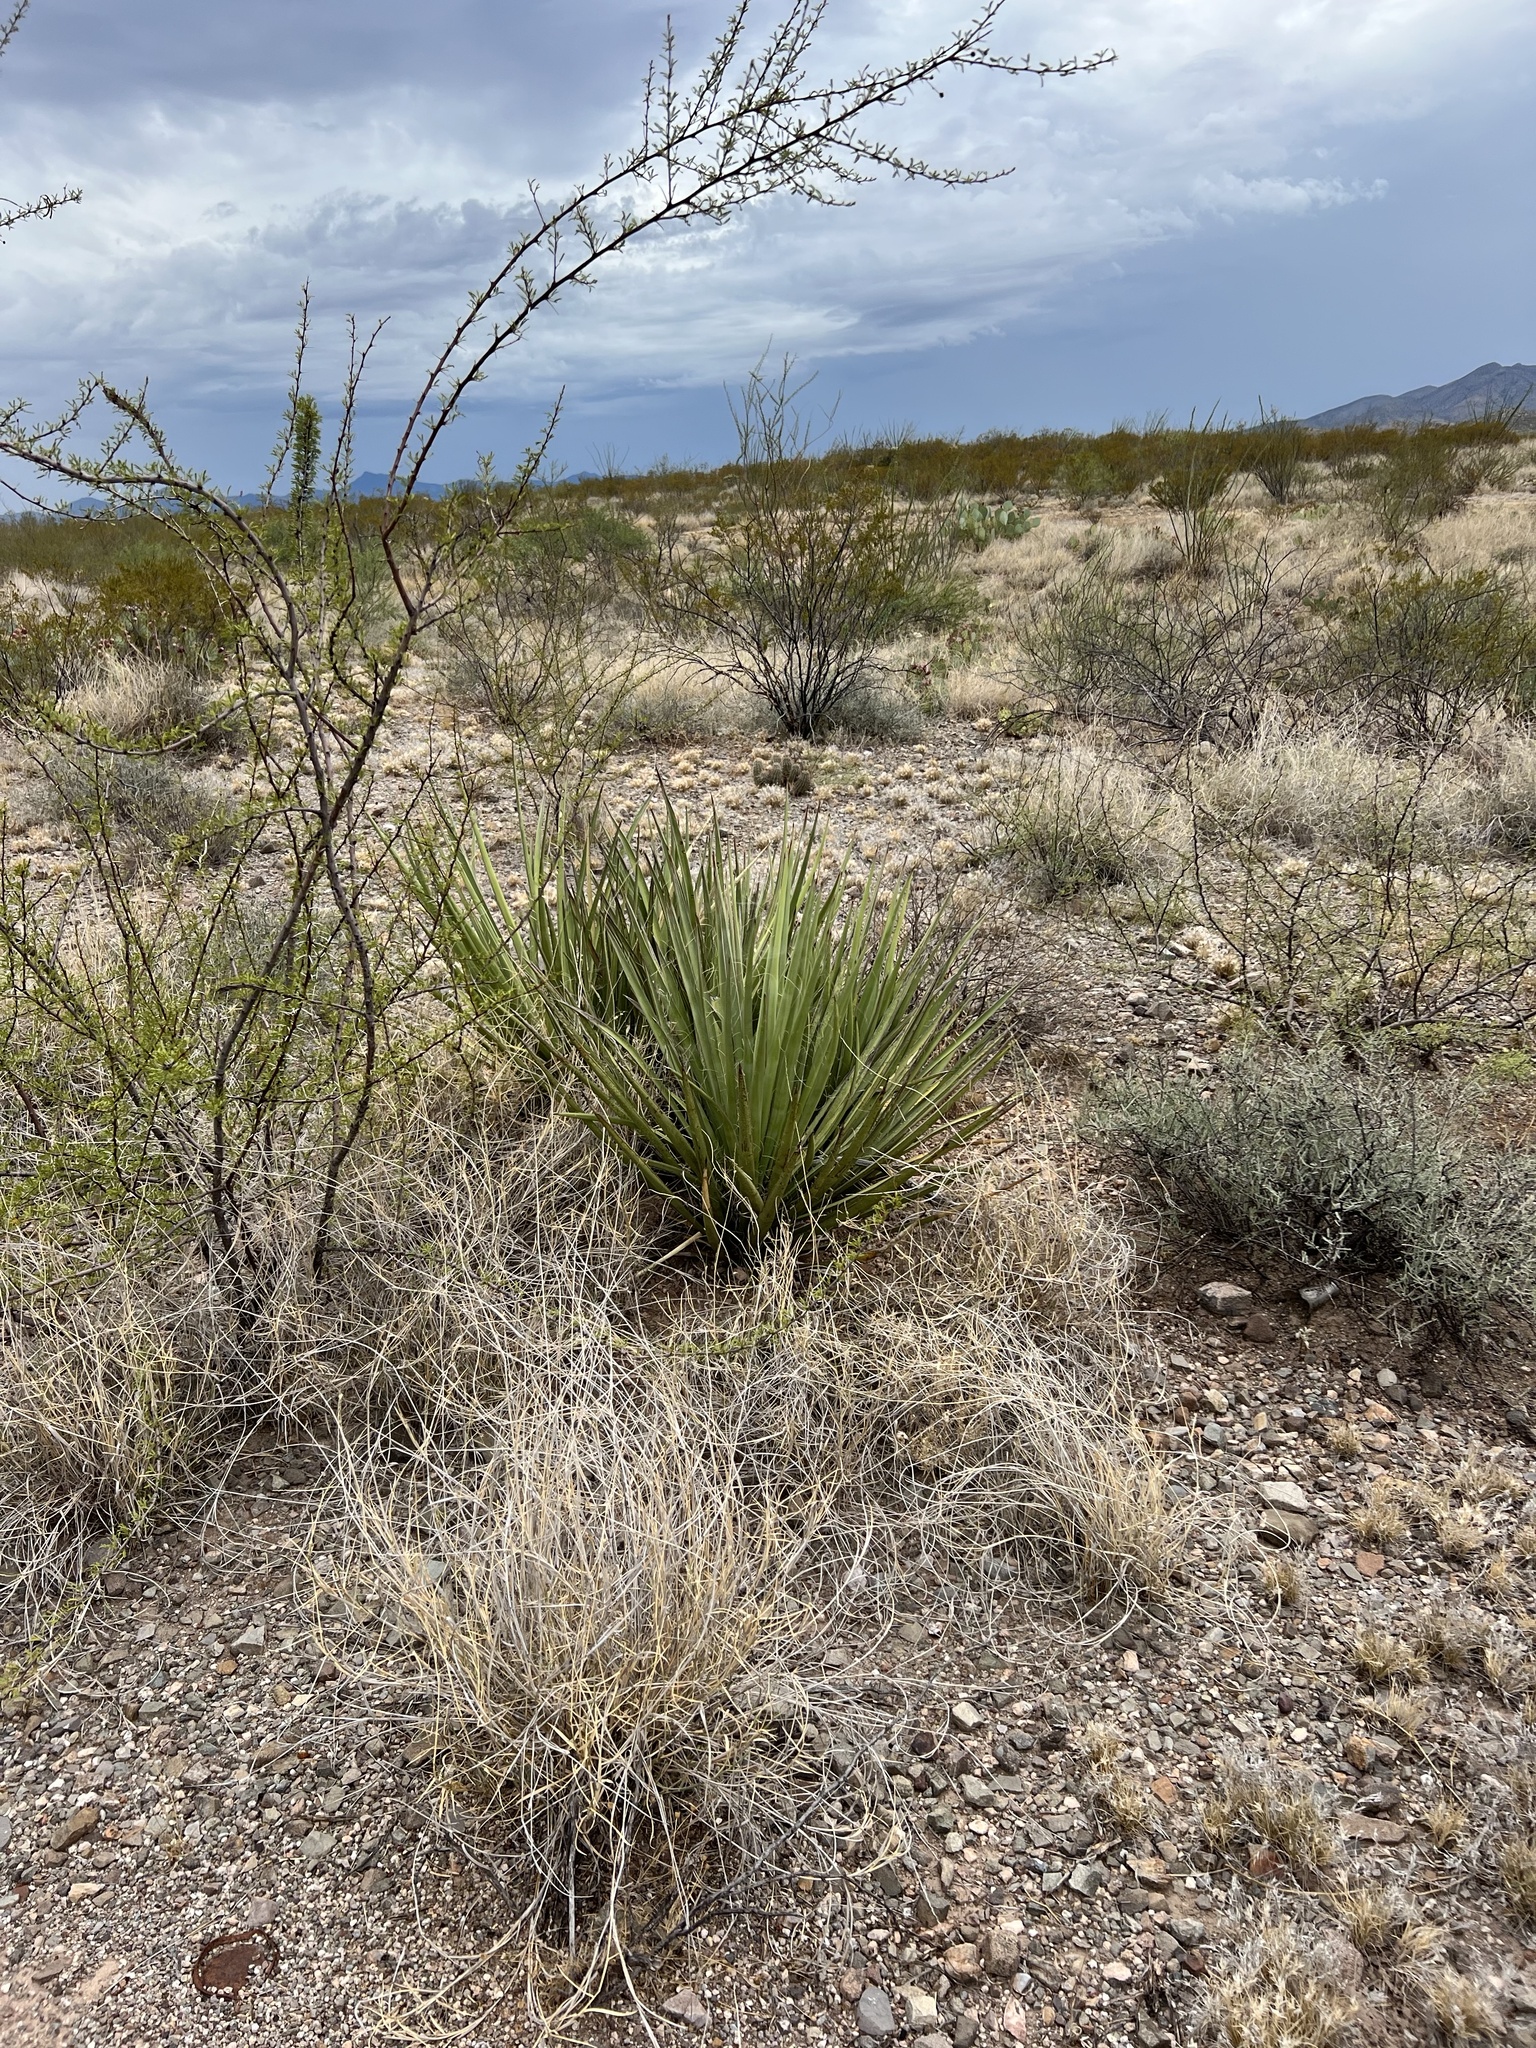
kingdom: Plantae
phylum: Tracheophyta
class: Liliopsida
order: Asparagales
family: Asparagaceae
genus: Yucca
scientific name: Yucca baccata
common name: Banana yucca
